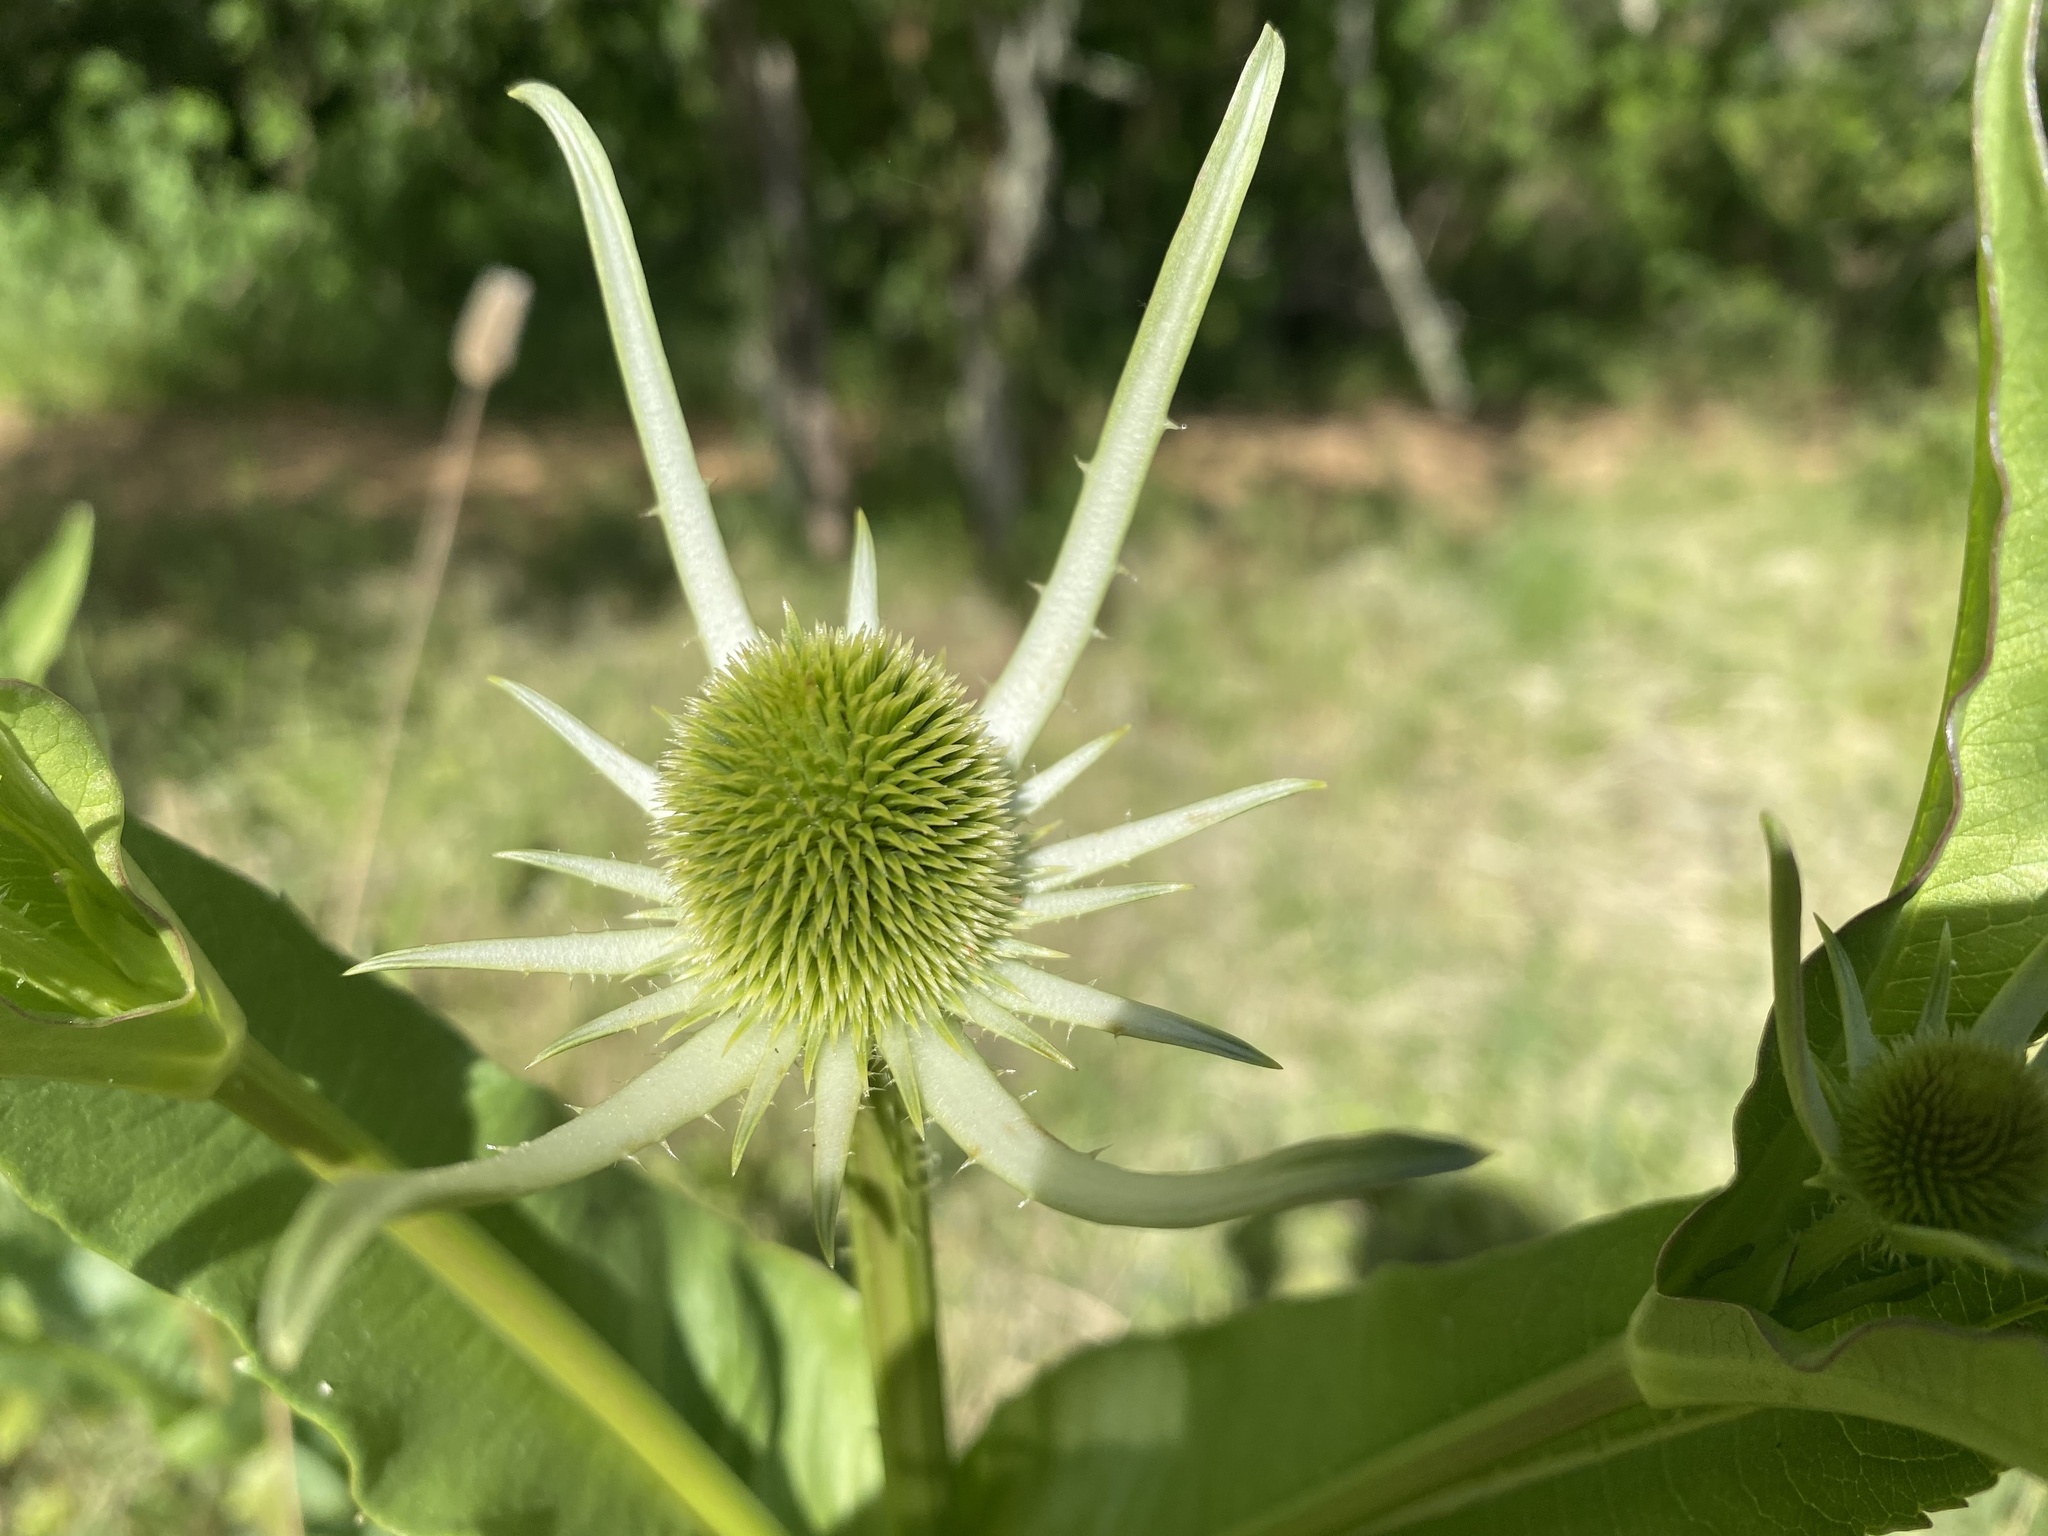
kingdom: Plantae
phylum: Tracheophyta
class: Magnoliopsida
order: Dipsacales
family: Caprifoliaceae
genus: Dipsacus
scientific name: Dipsacus sativus
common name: Fuller's teasel
